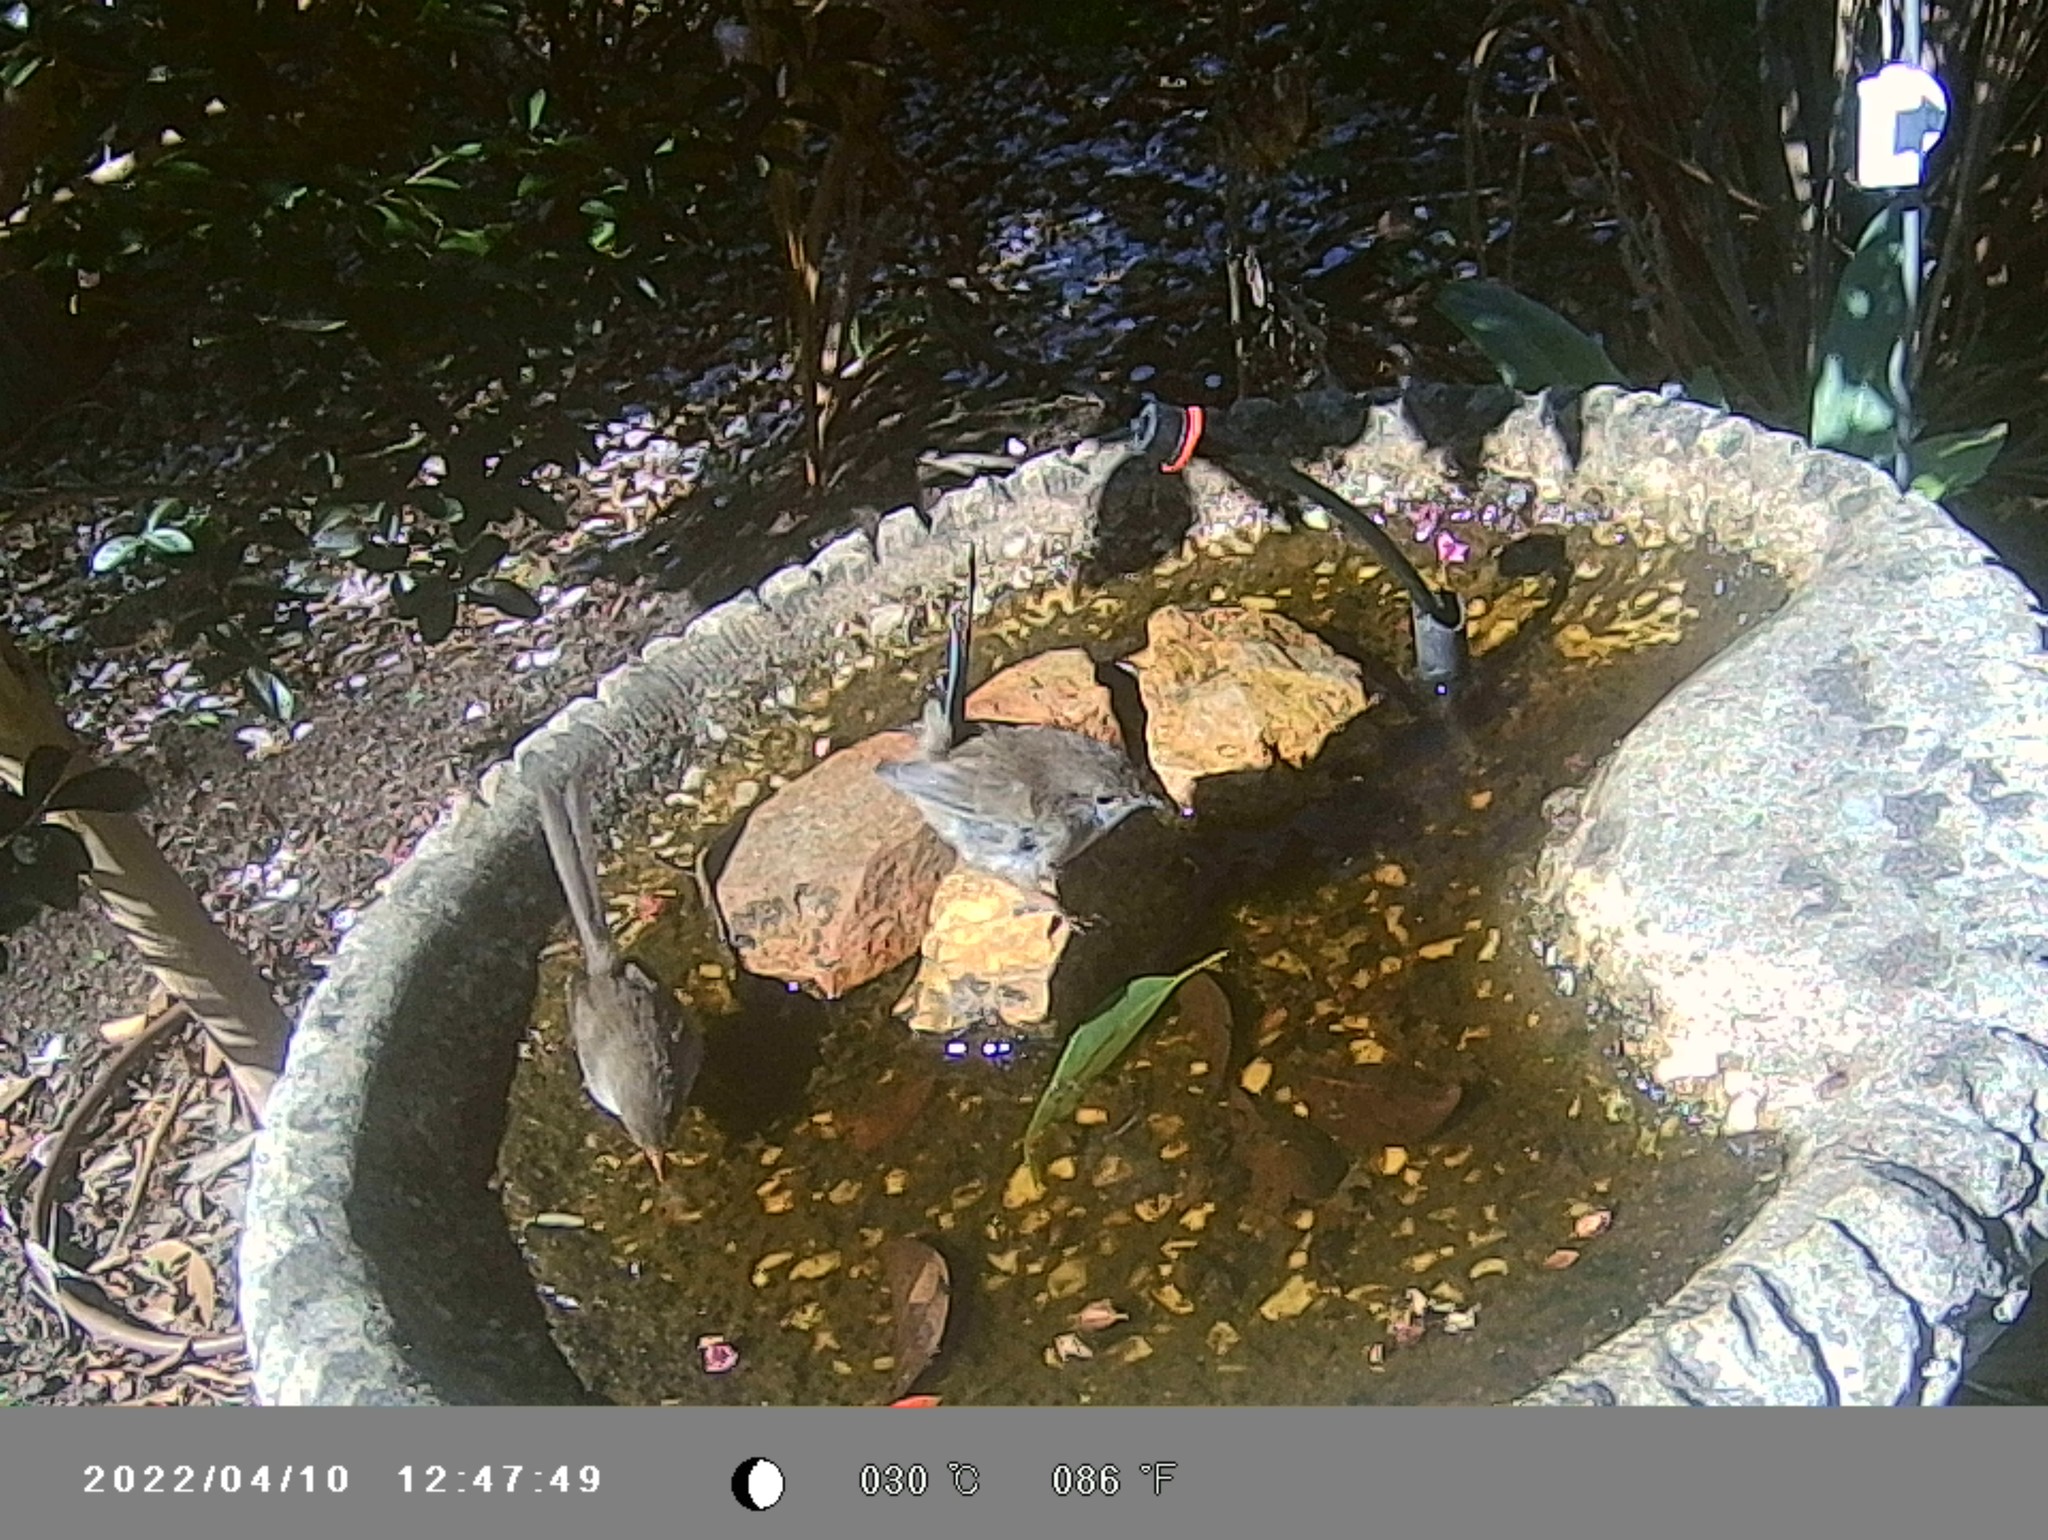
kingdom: Animalia
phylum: Chordata
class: Aves
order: Passeriformes
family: Maluridae
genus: Malurus
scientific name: Malurus cyaneus
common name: Superb fairywren
